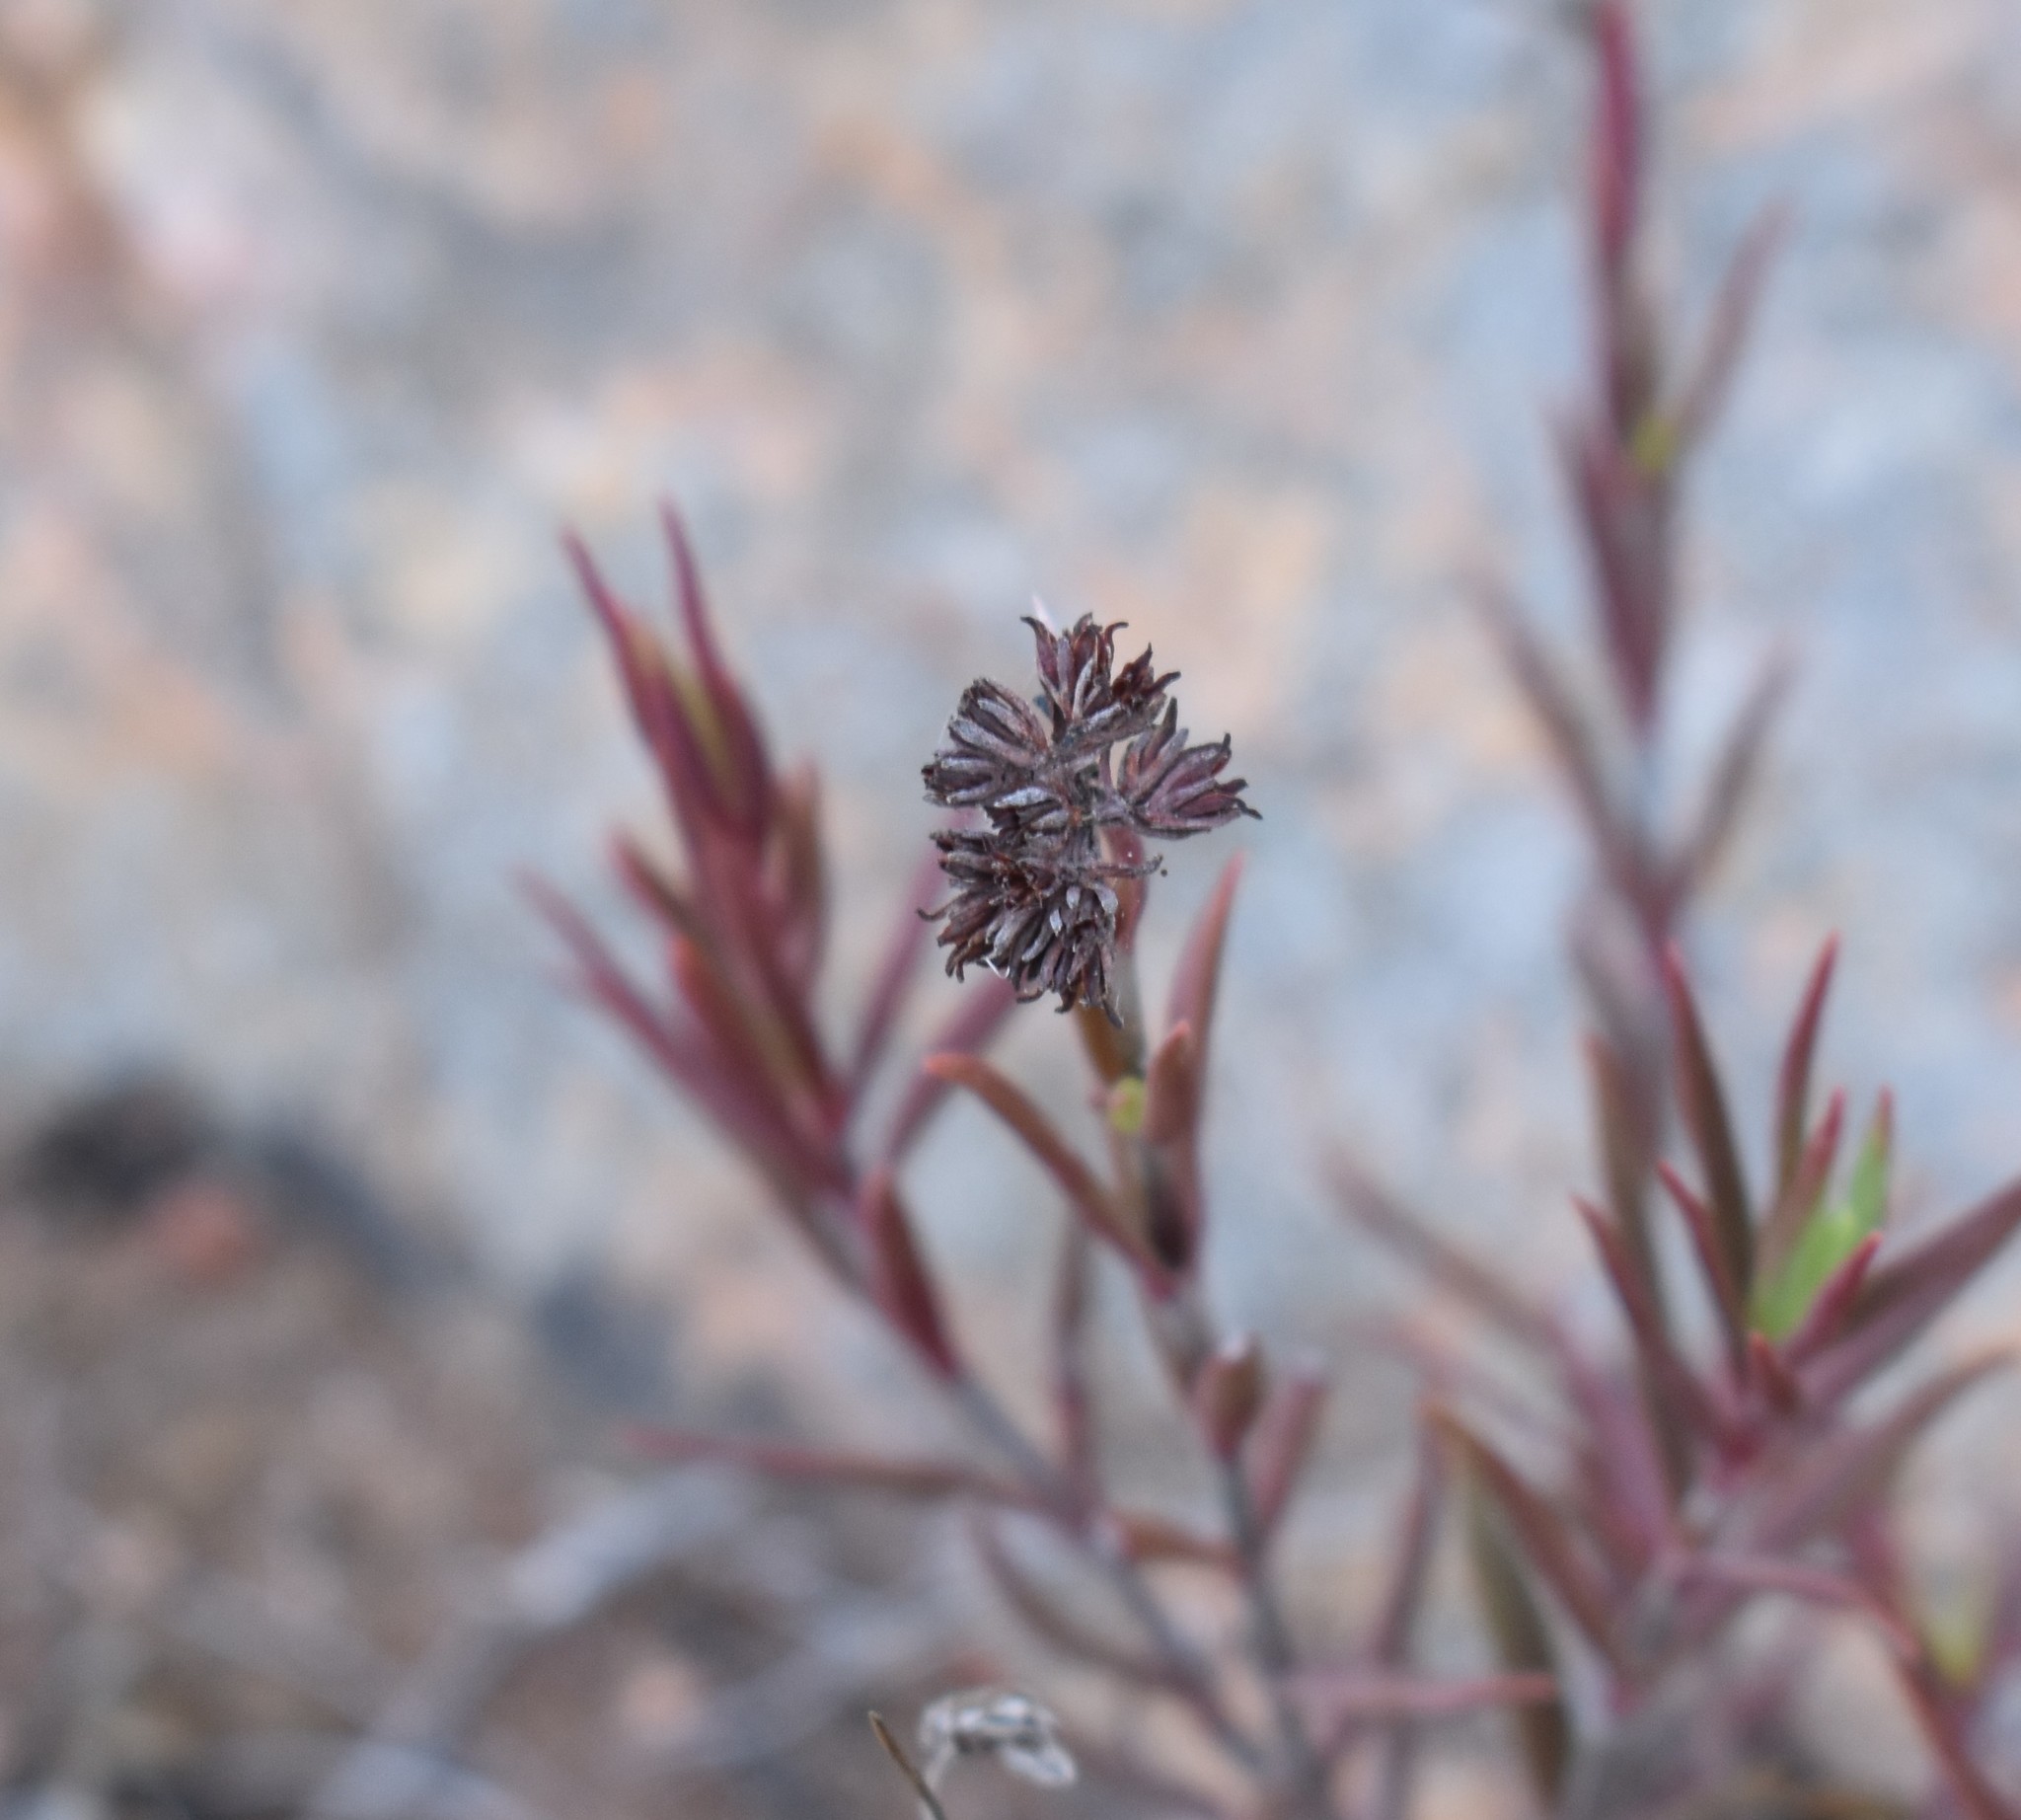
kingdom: Plantae
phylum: Tracheophyta
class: Magnoliopsida
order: Saxifragales
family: Crassulaceae
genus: Crassula
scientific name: Crassula subulata
